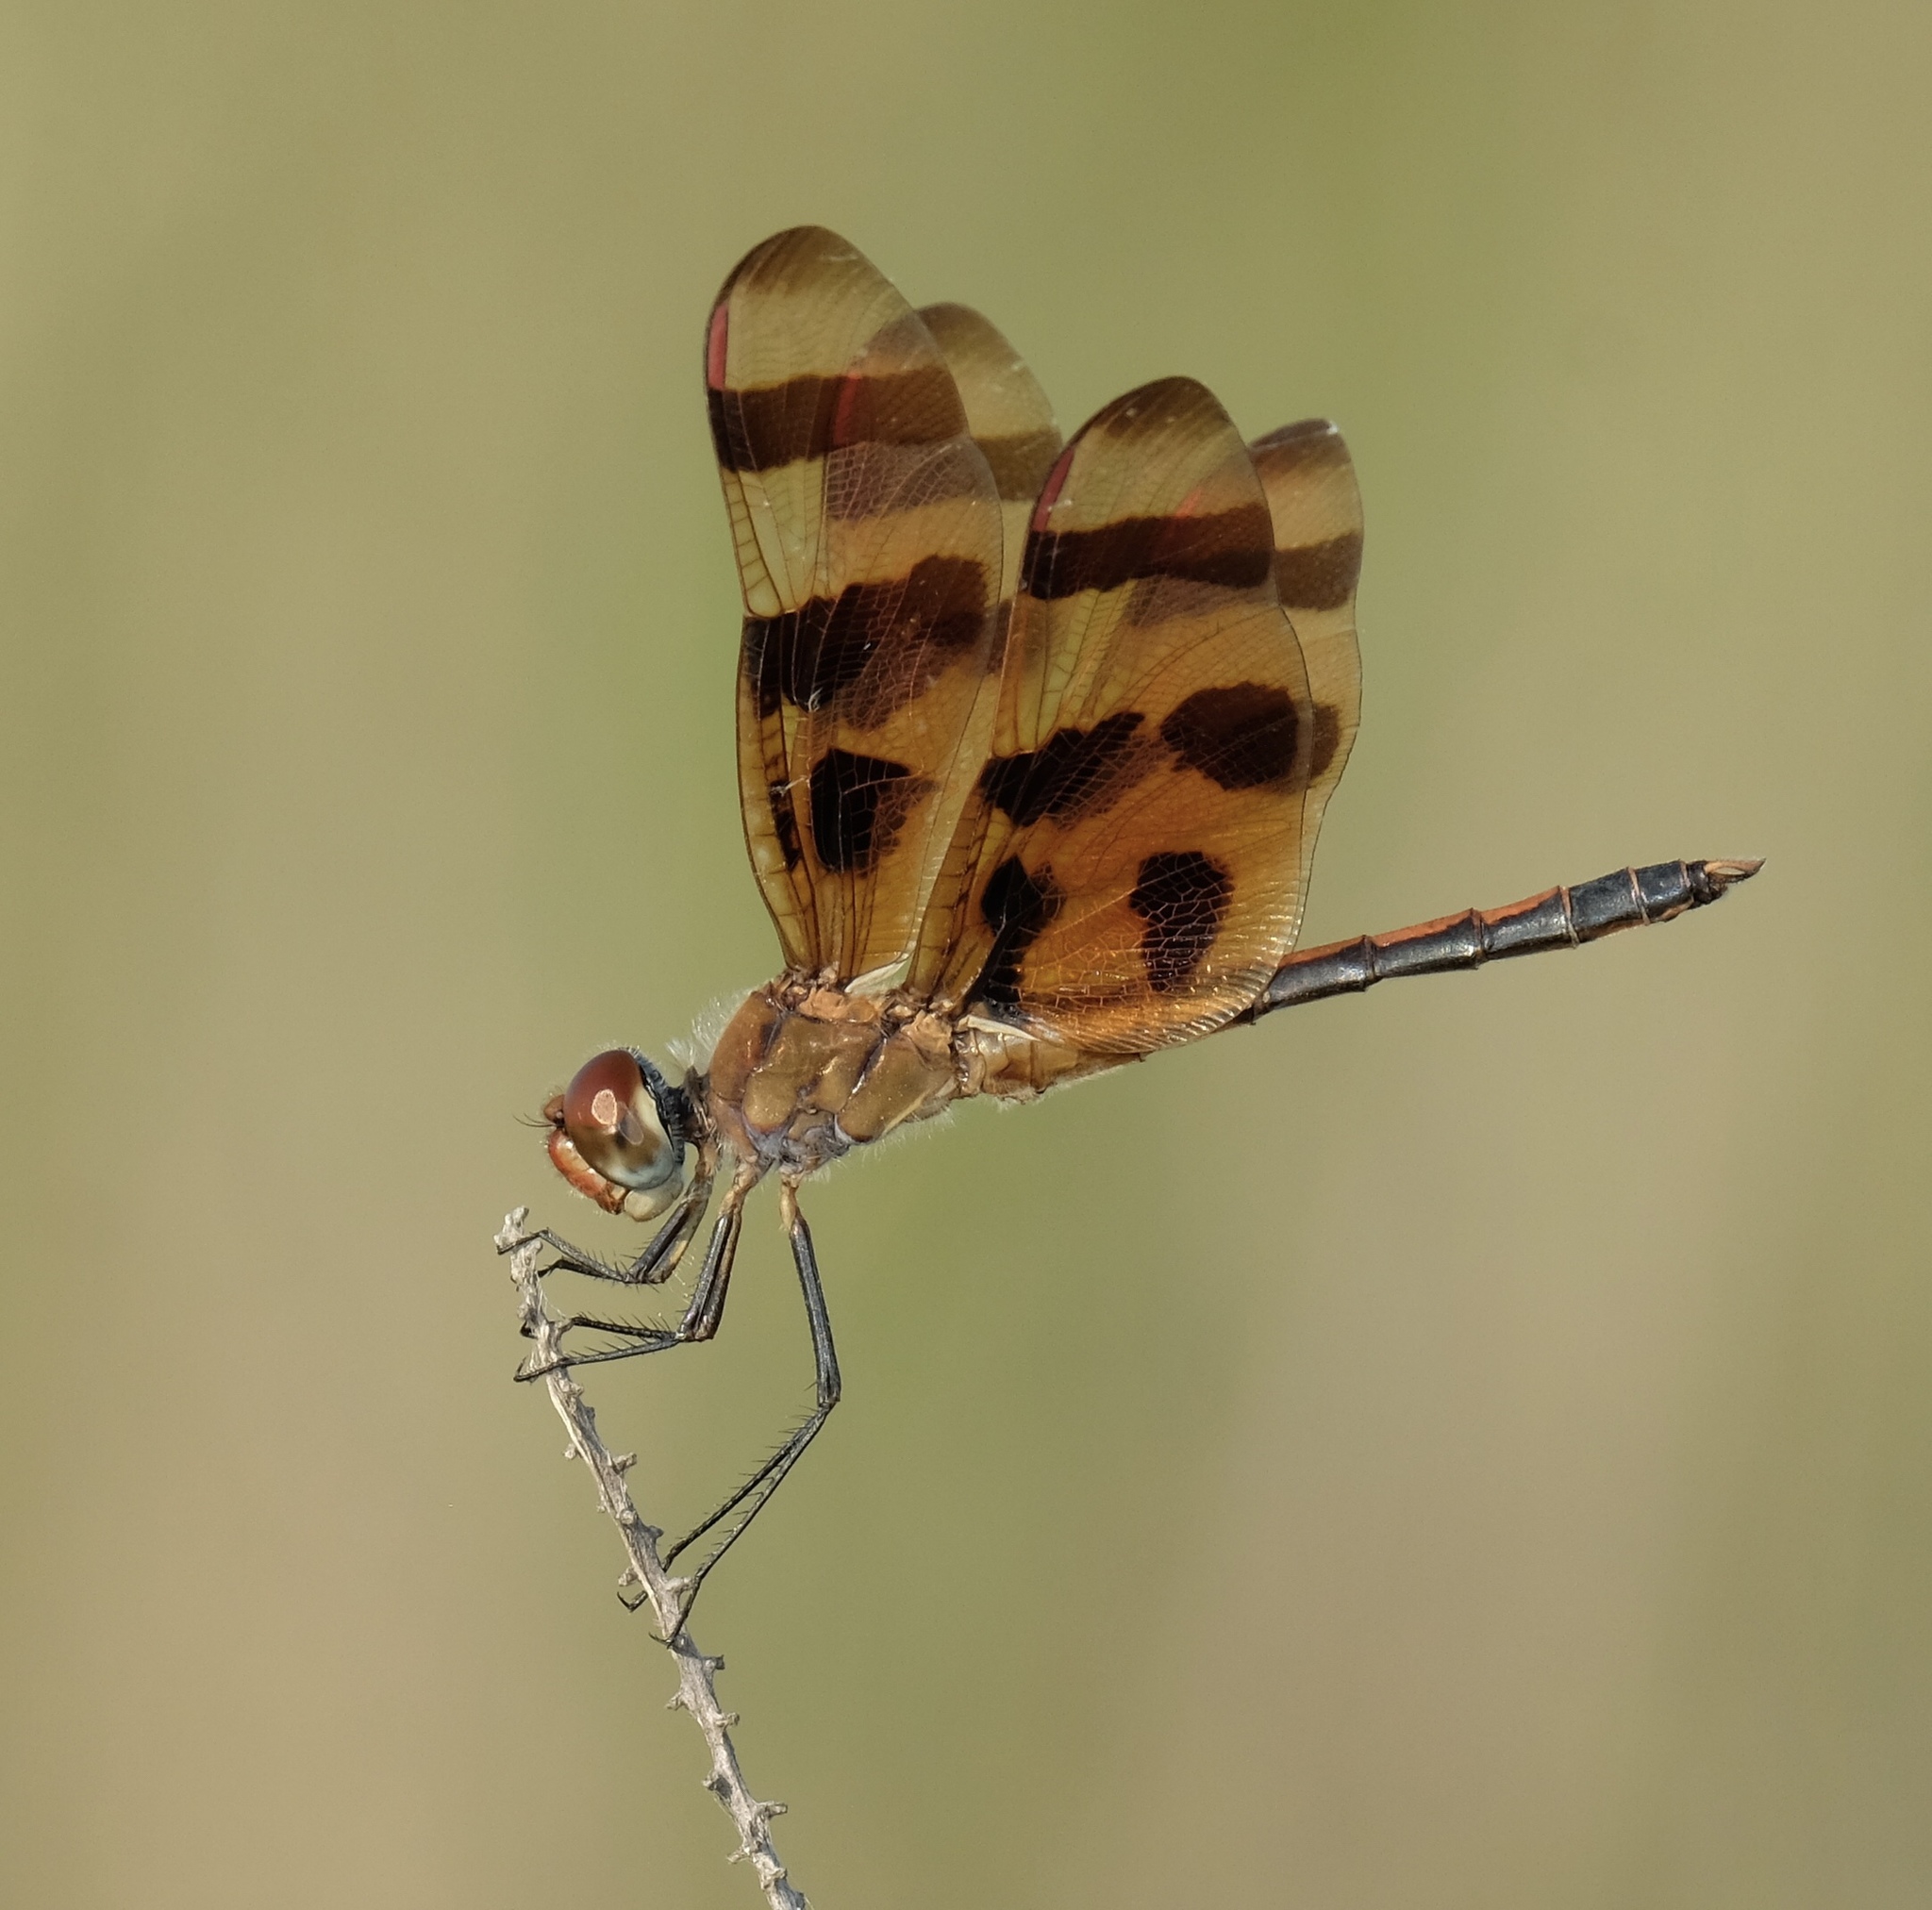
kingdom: Animalia
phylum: Arthropoda
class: Insecta
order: Odonata
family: Libellulidae
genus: Celithemis
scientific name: Celithemis eponina
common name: Halloween pennant
